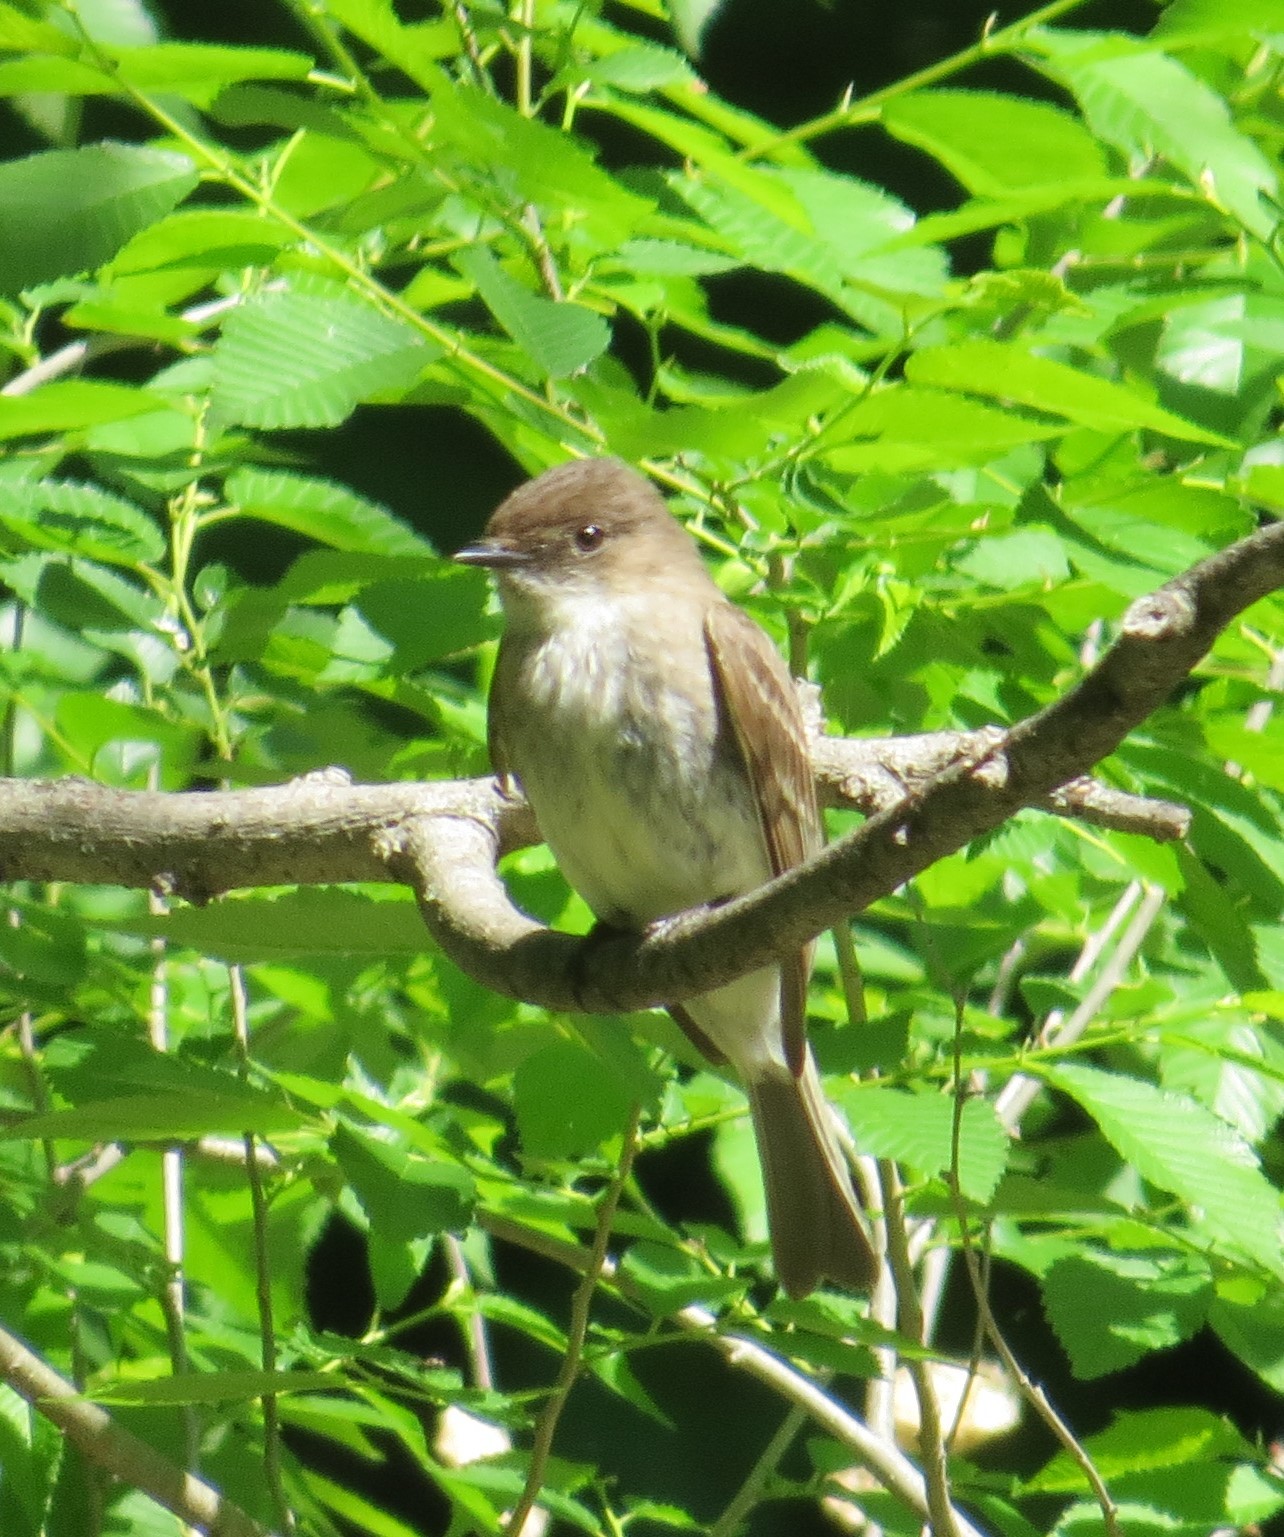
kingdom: Animalia
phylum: Chordata
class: Aves
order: Passeriformes
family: Tyrannidae
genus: Sayornis
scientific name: Sayornis phoebe
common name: Eastern phoebe
